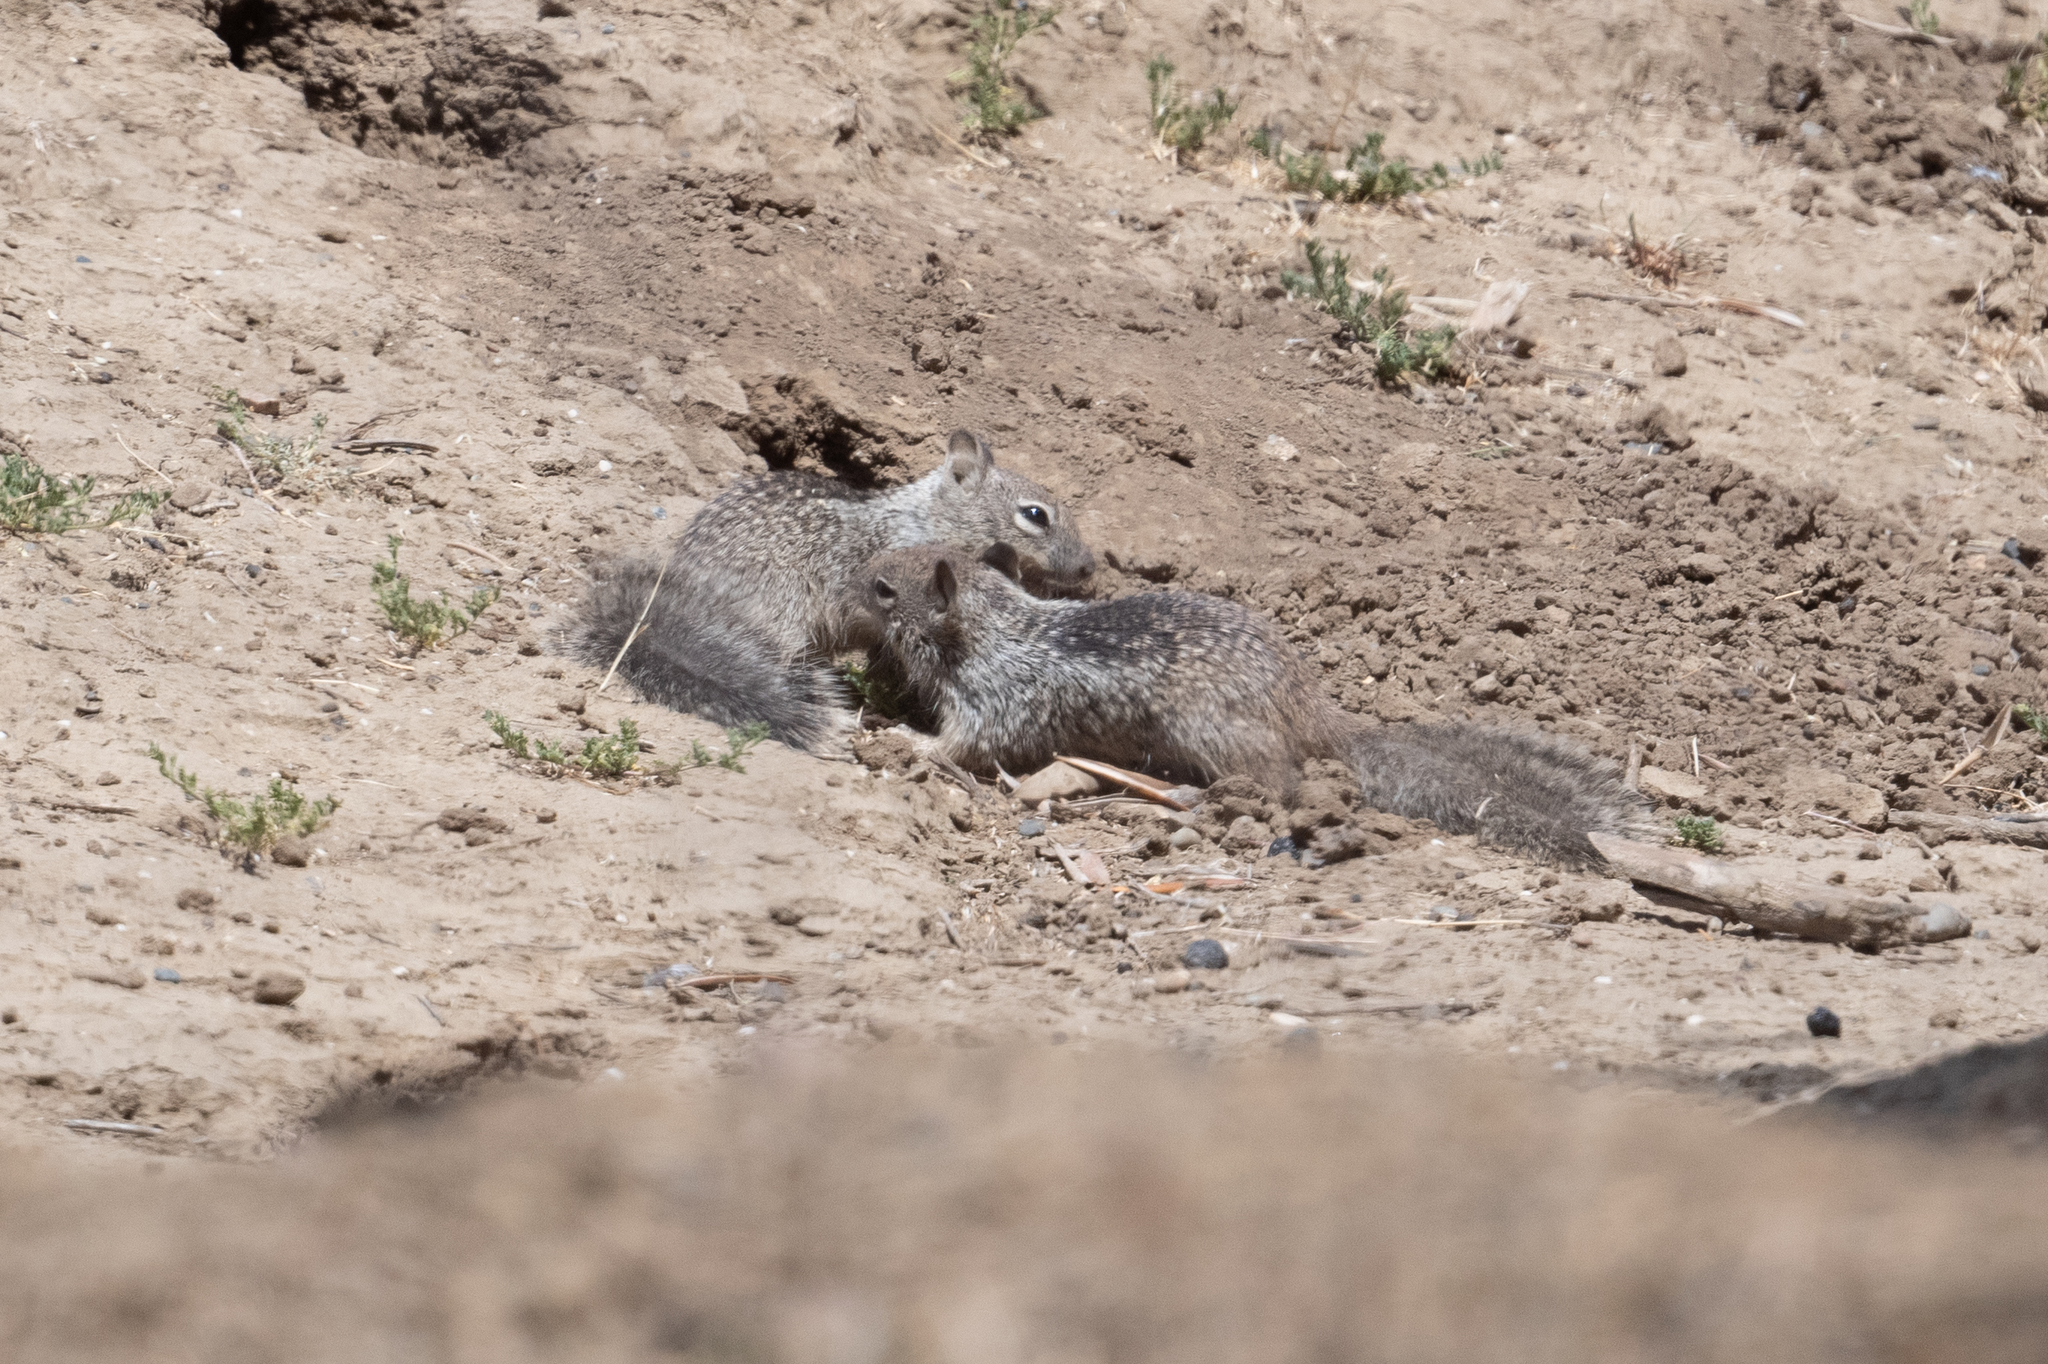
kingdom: Animalia
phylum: Chordata
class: Mammalia
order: Rodentia
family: Sciuridae
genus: Otospermophilus
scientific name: Otospermophilus beecheyi
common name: California ground squirrel
